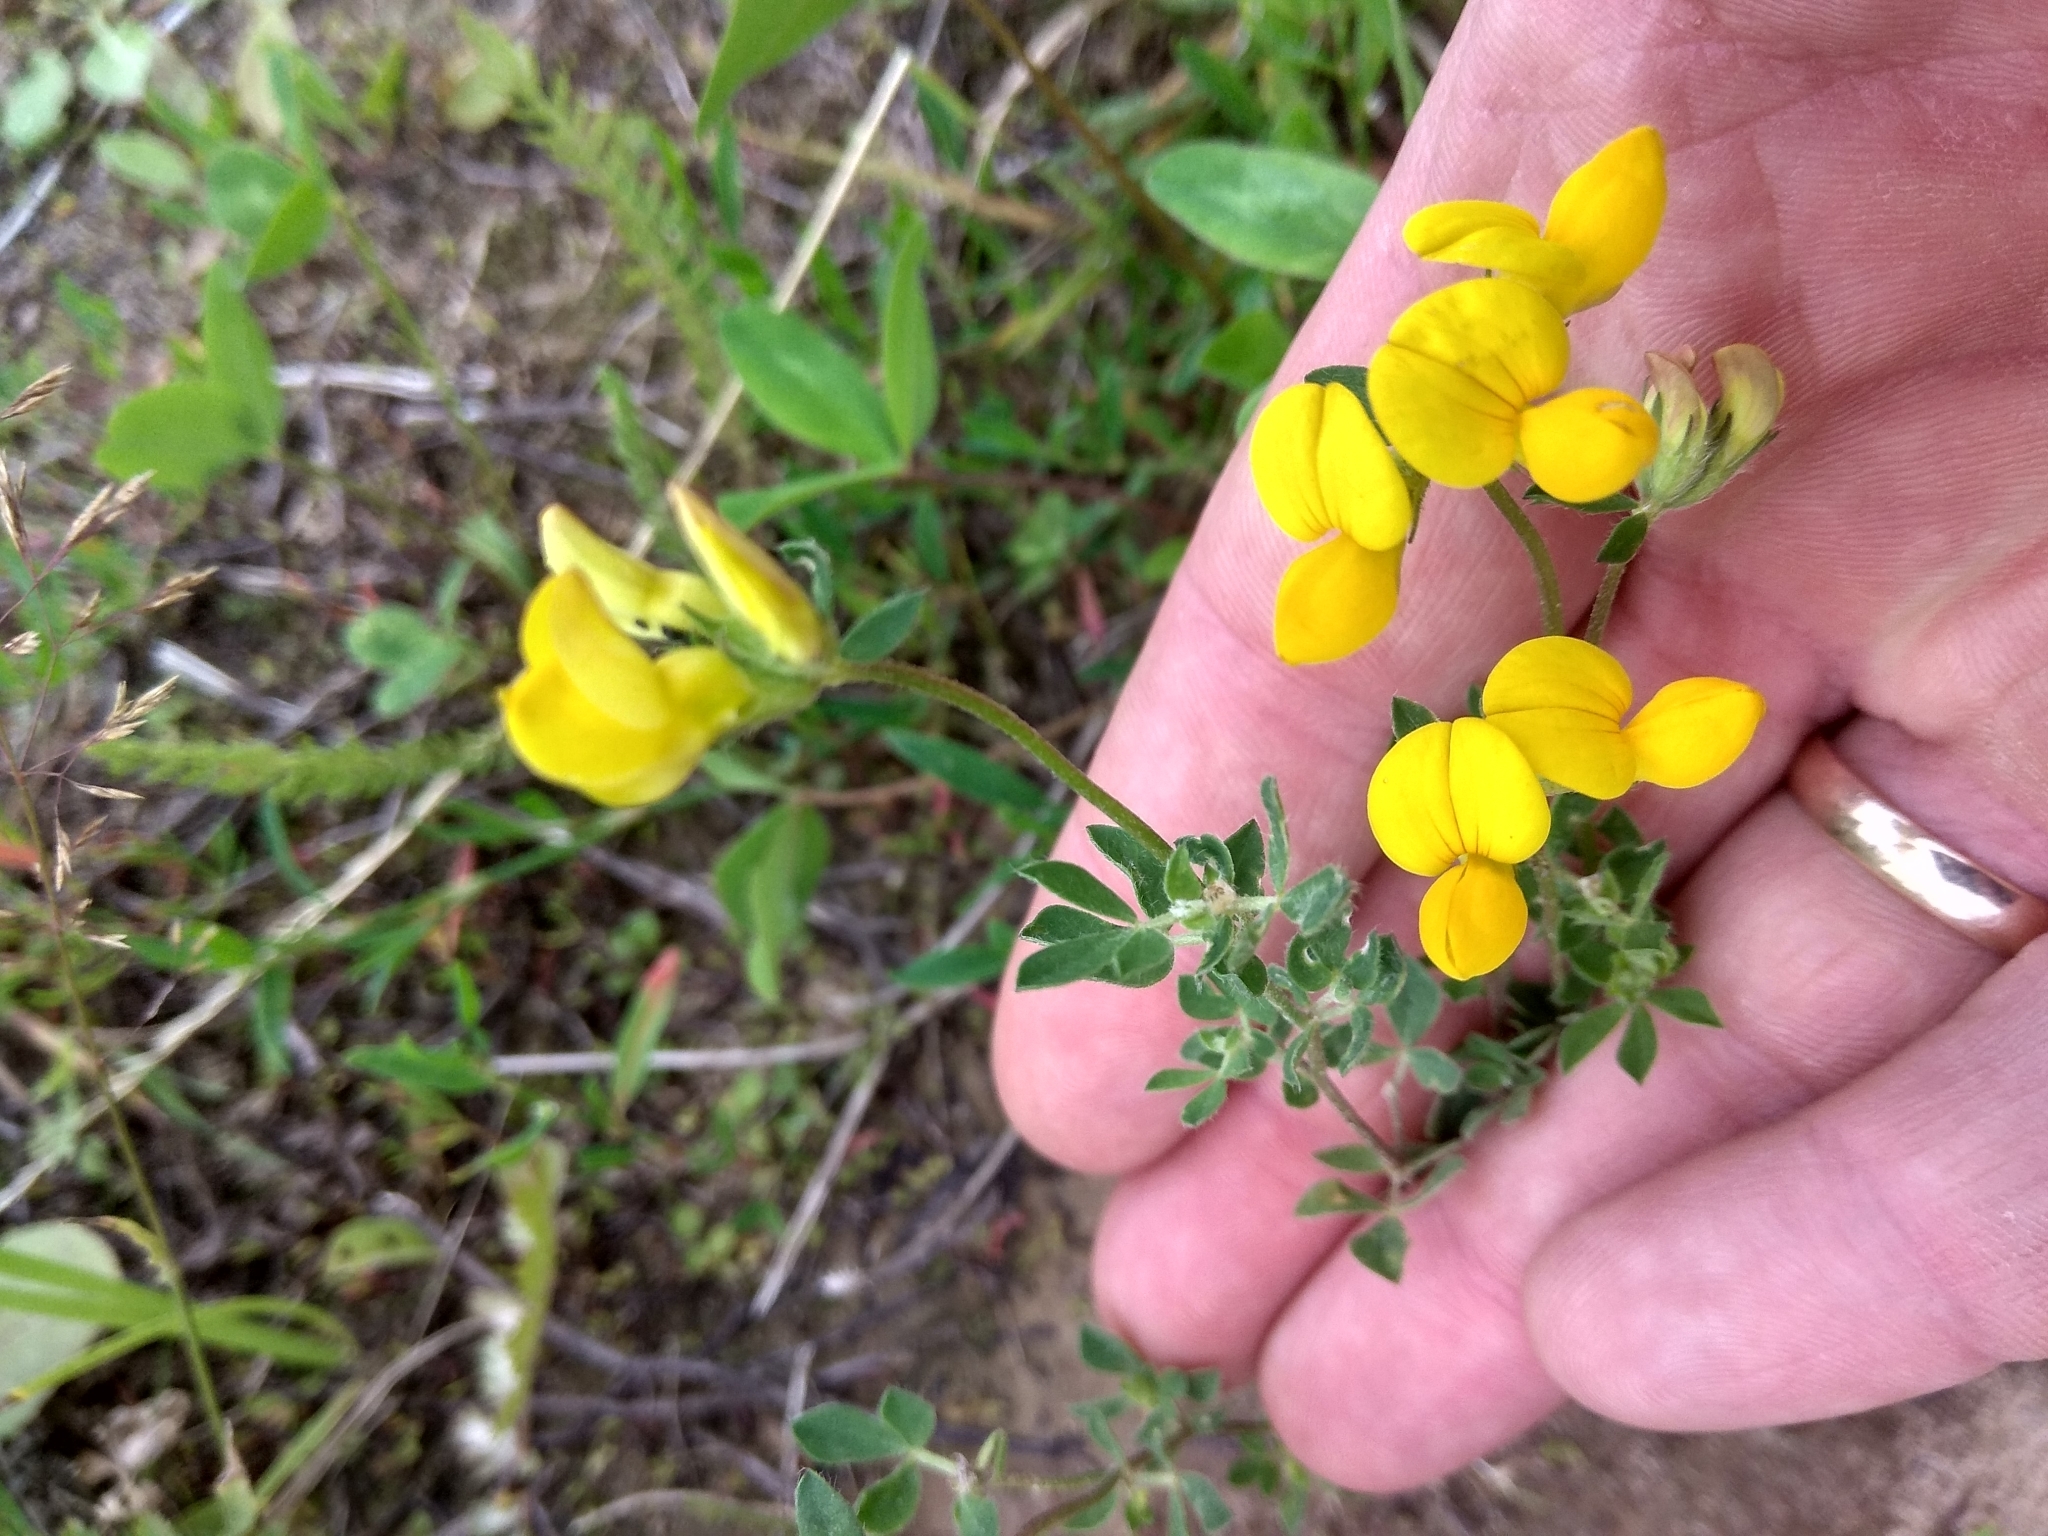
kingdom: Plantae
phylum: Tracheophyta
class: Magnoliopsida
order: Fabales
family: Fabaceae
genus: Lotus
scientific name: Lotus corniculatus
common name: Common bird's-foot-trefoil
